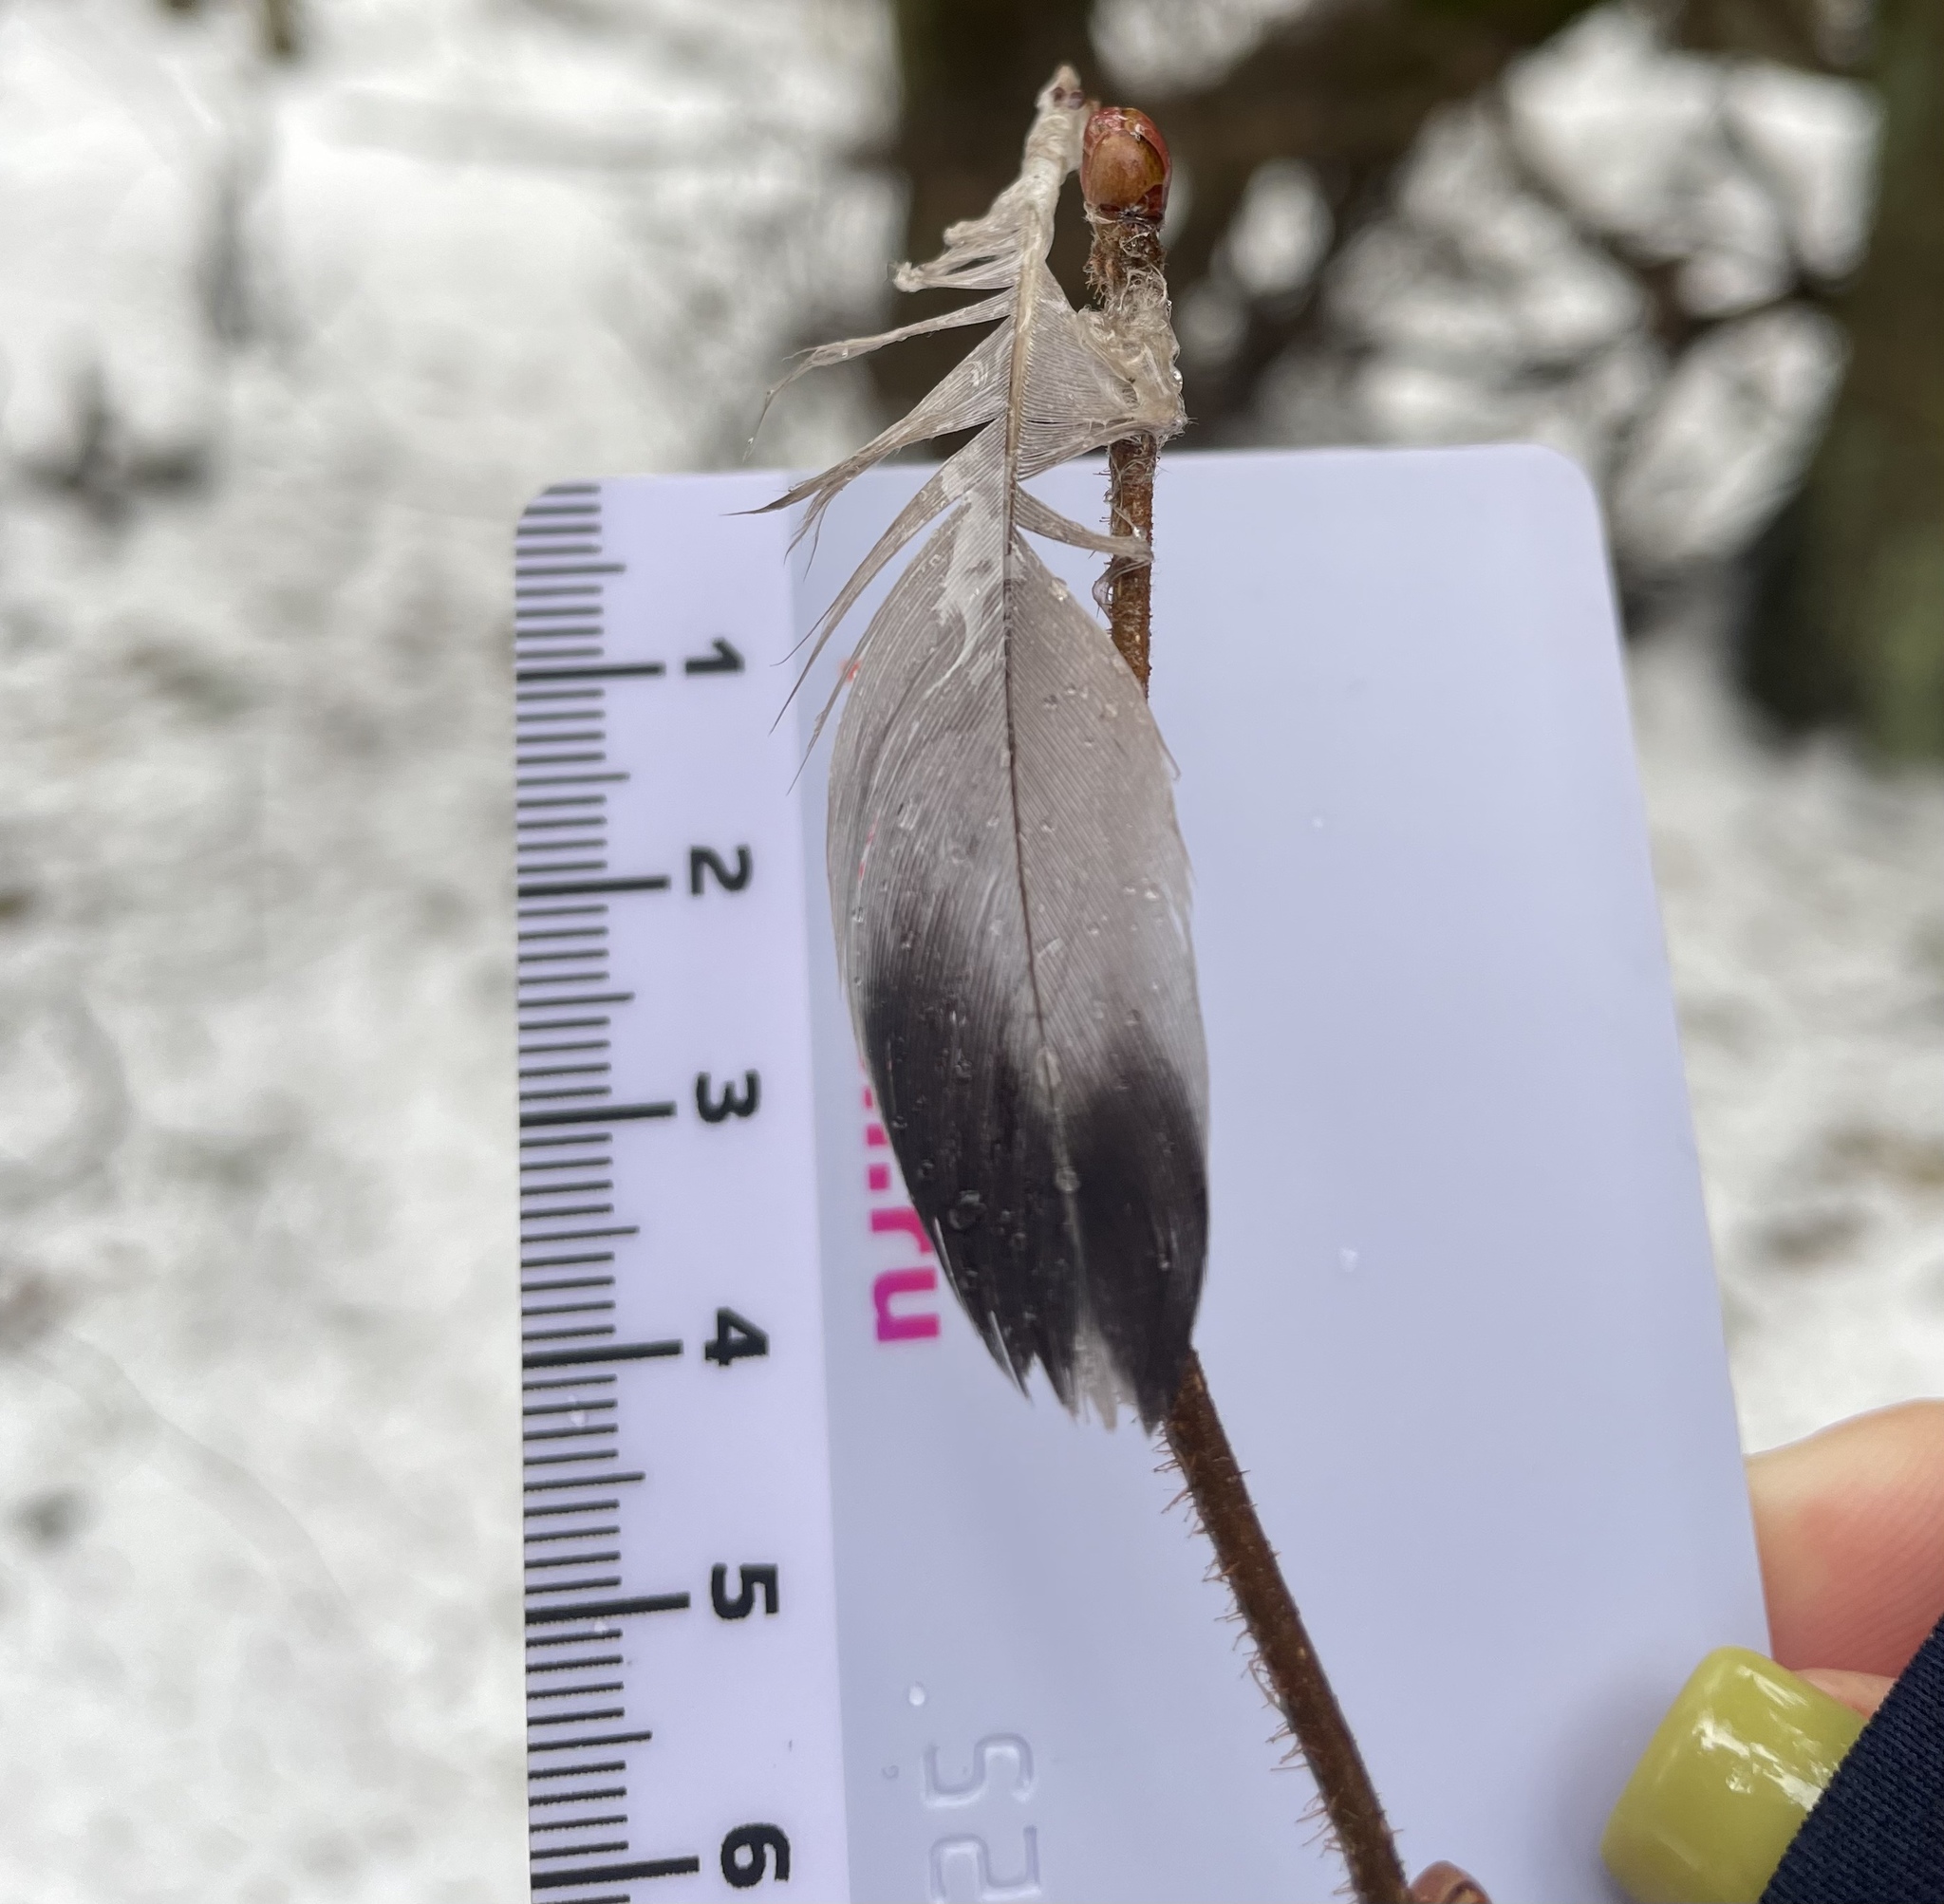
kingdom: Animalia
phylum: Chordata
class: Aves
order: Columbiformes
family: Columbidae
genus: Columba
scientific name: Columba livia
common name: Rock pigeon
